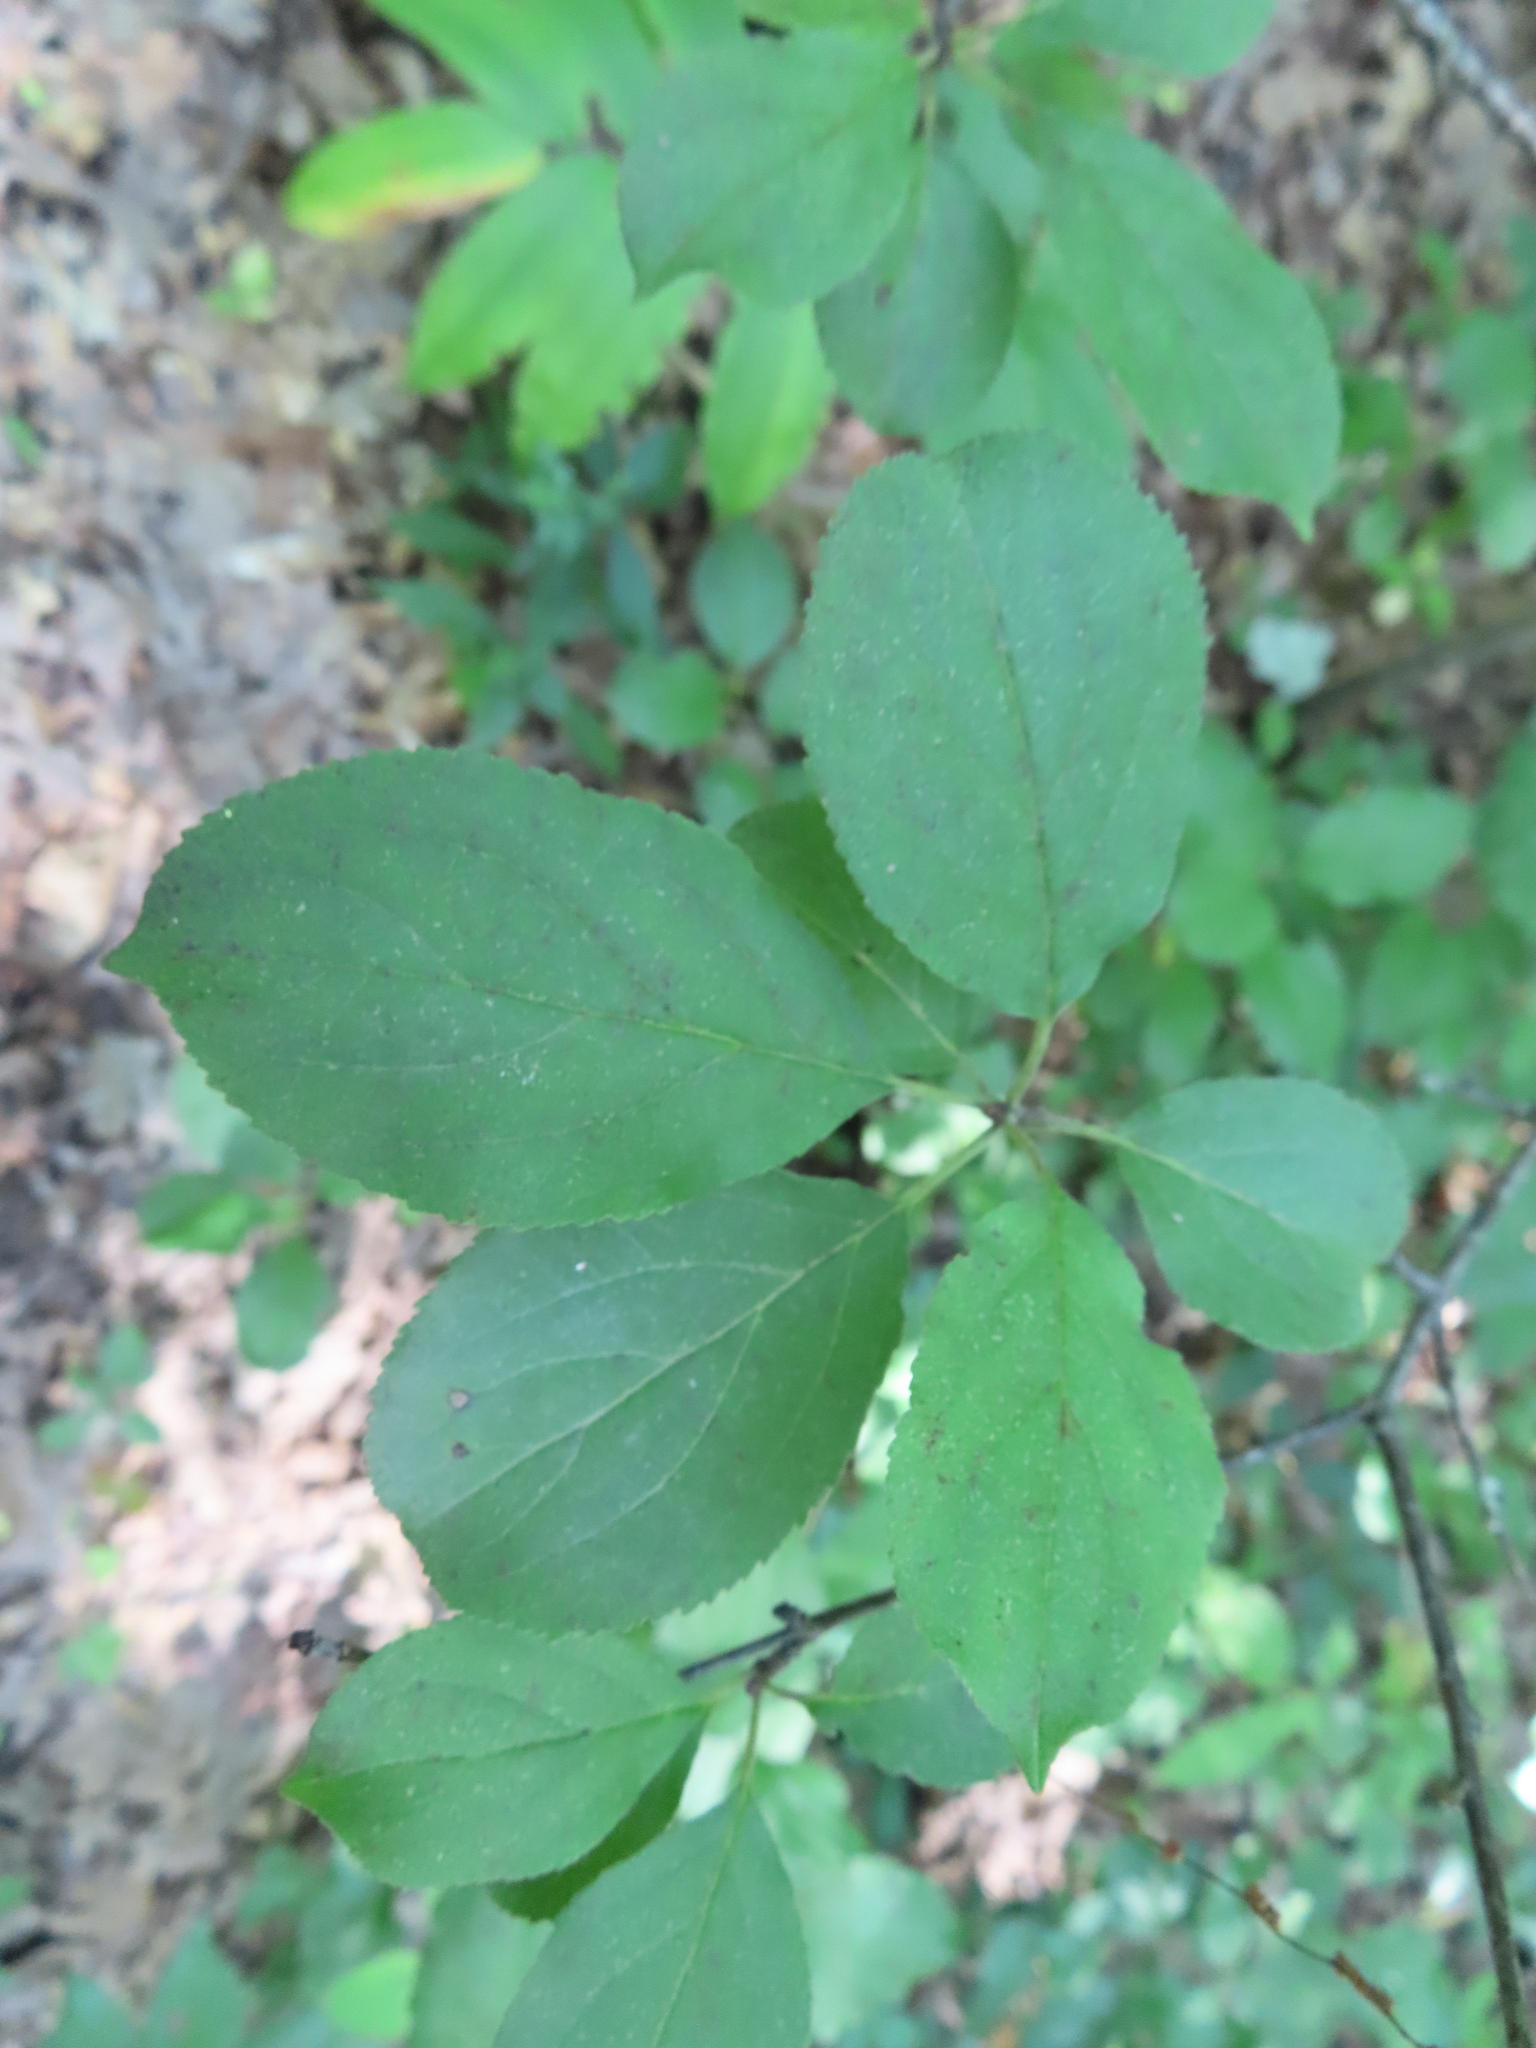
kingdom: Plantae
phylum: Tracheophyta
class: Magnoliopsida
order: Rosales
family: Rhamnaceae
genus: Rhamnus
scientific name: Rhamnus cathartica
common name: Common buckthorn
